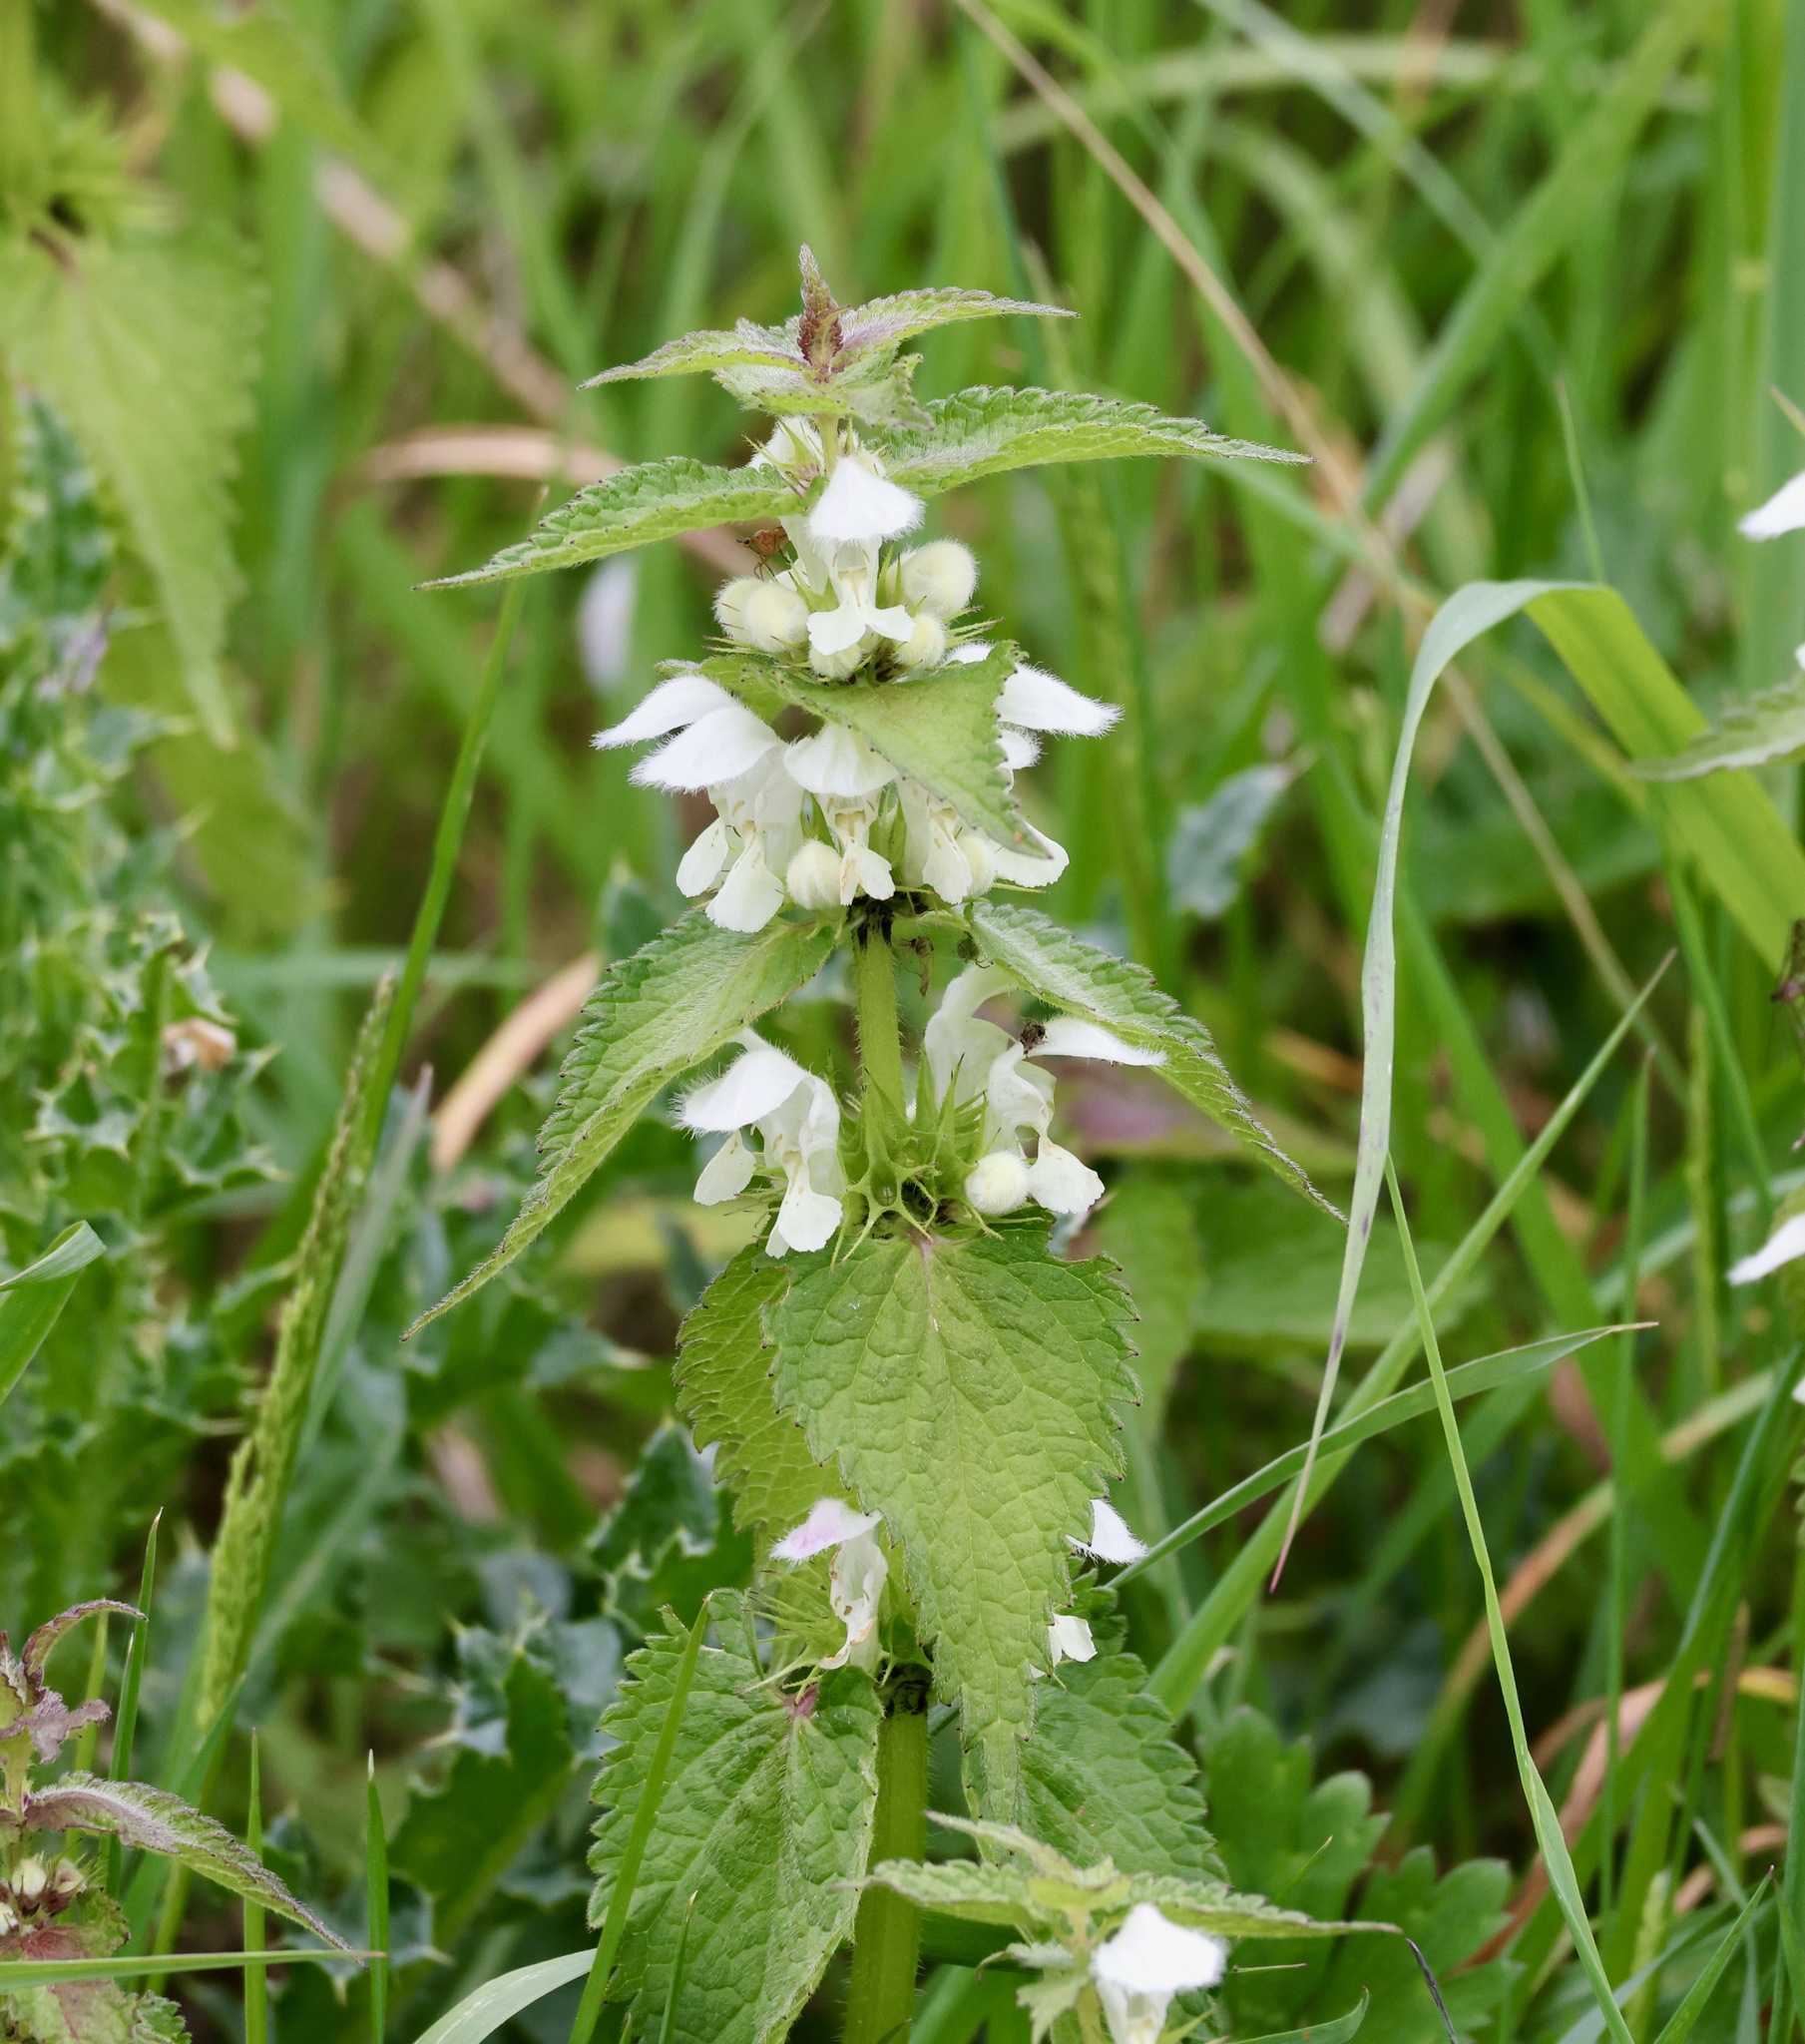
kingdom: Plantae
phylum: Tracheophyta
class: Magnoliopsida
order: Lamiales
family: Lamiaceae
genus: Lamium
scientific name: Lamium album
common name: White dead-nettle
